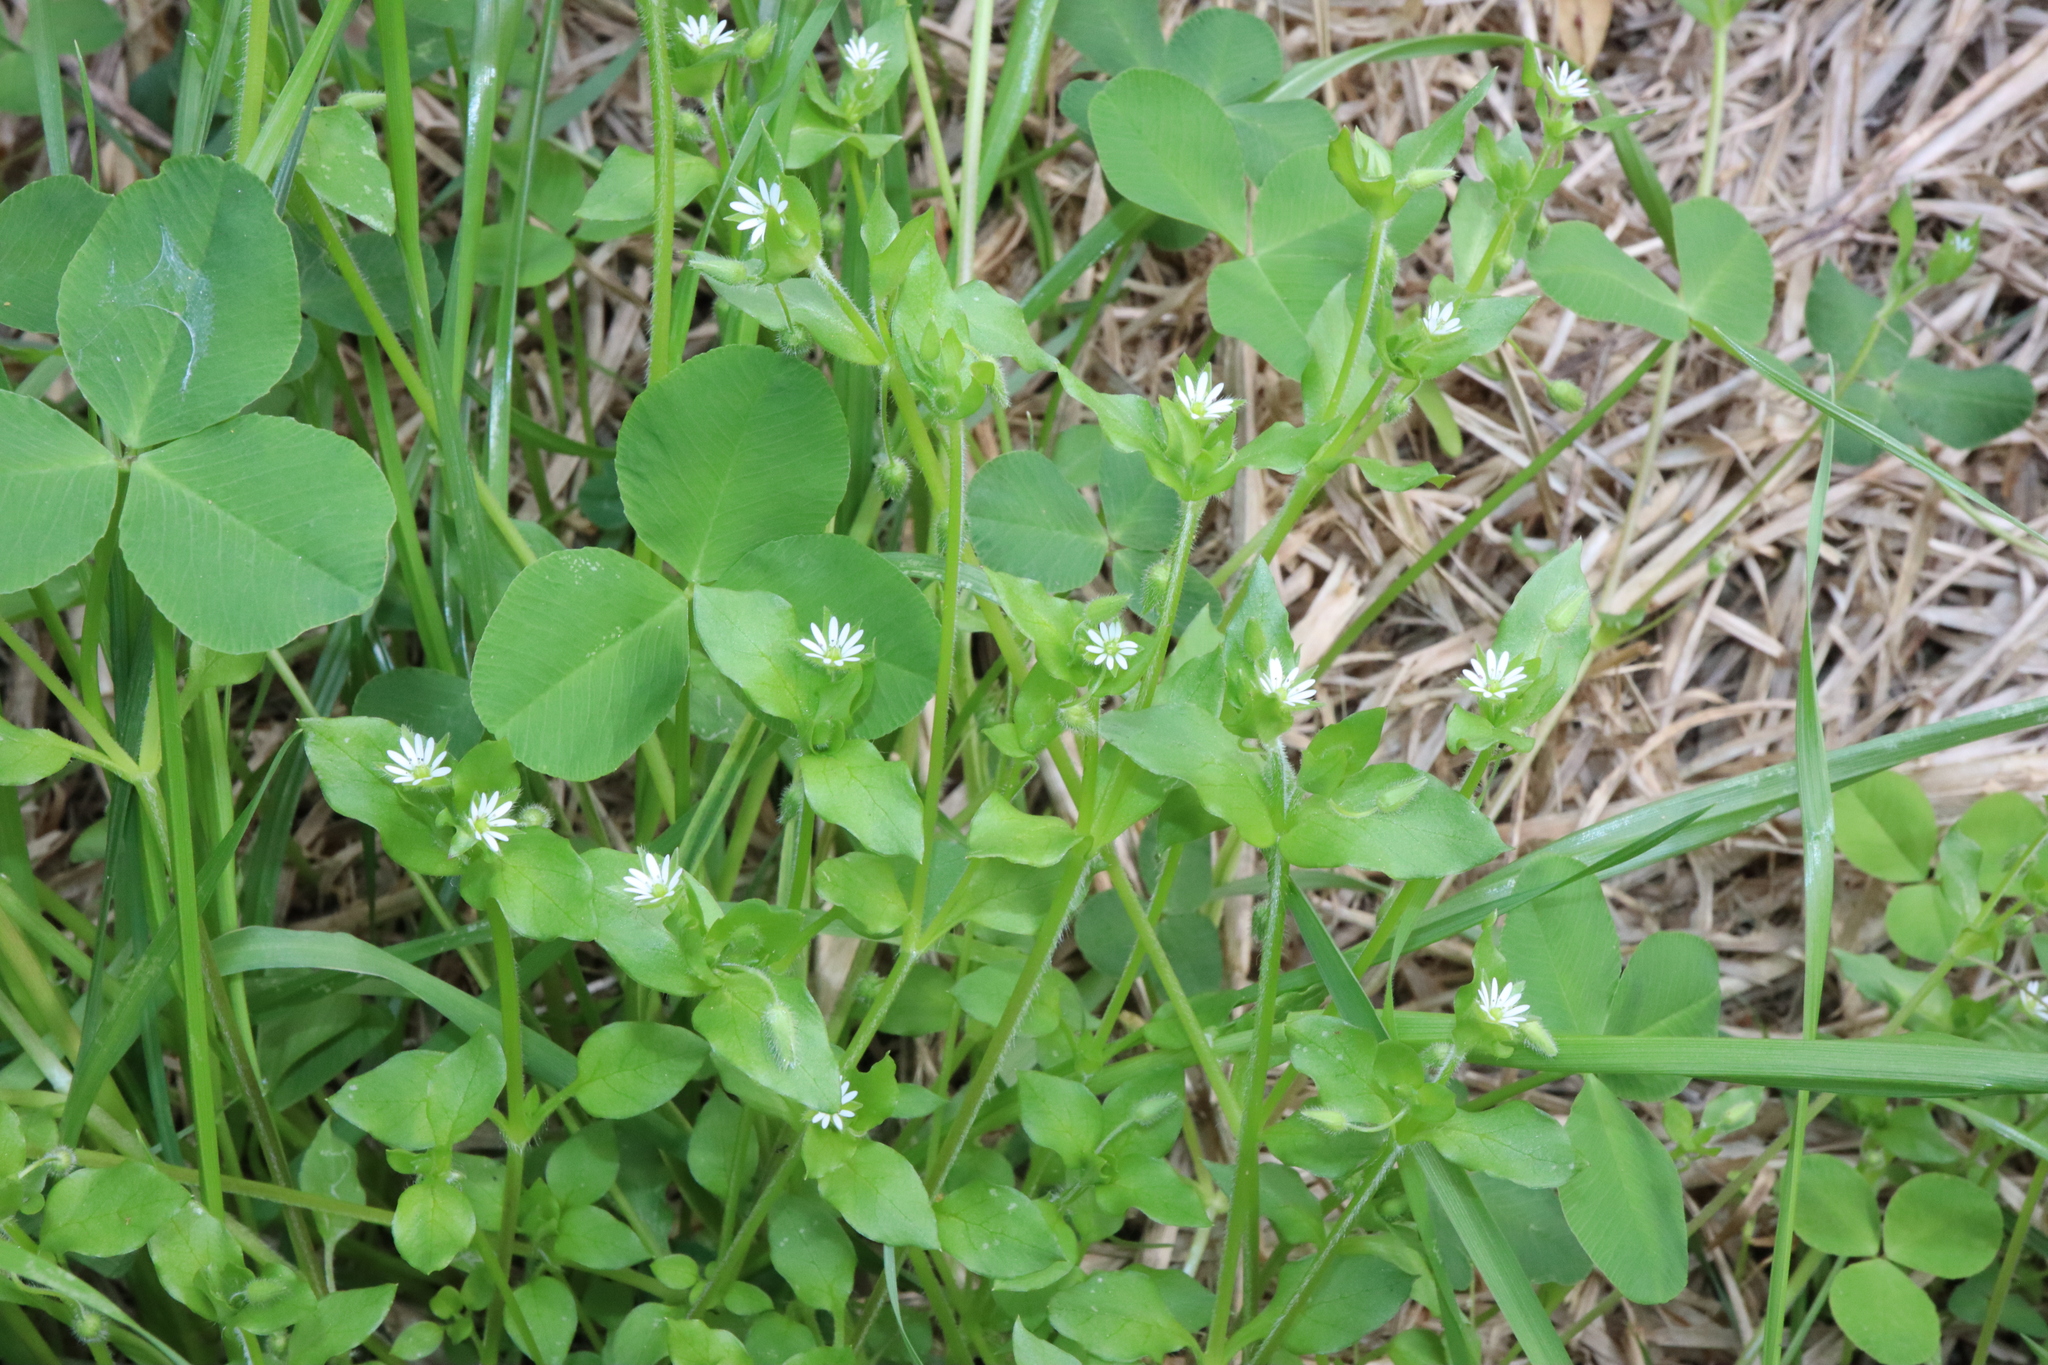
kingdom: Plantae
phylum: Tracheophyta
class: Magnoliopsida
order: Caryophyllales
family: Caryophyllaceae
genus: Stellaria
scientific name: Stellaria media
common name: Common chickweed
